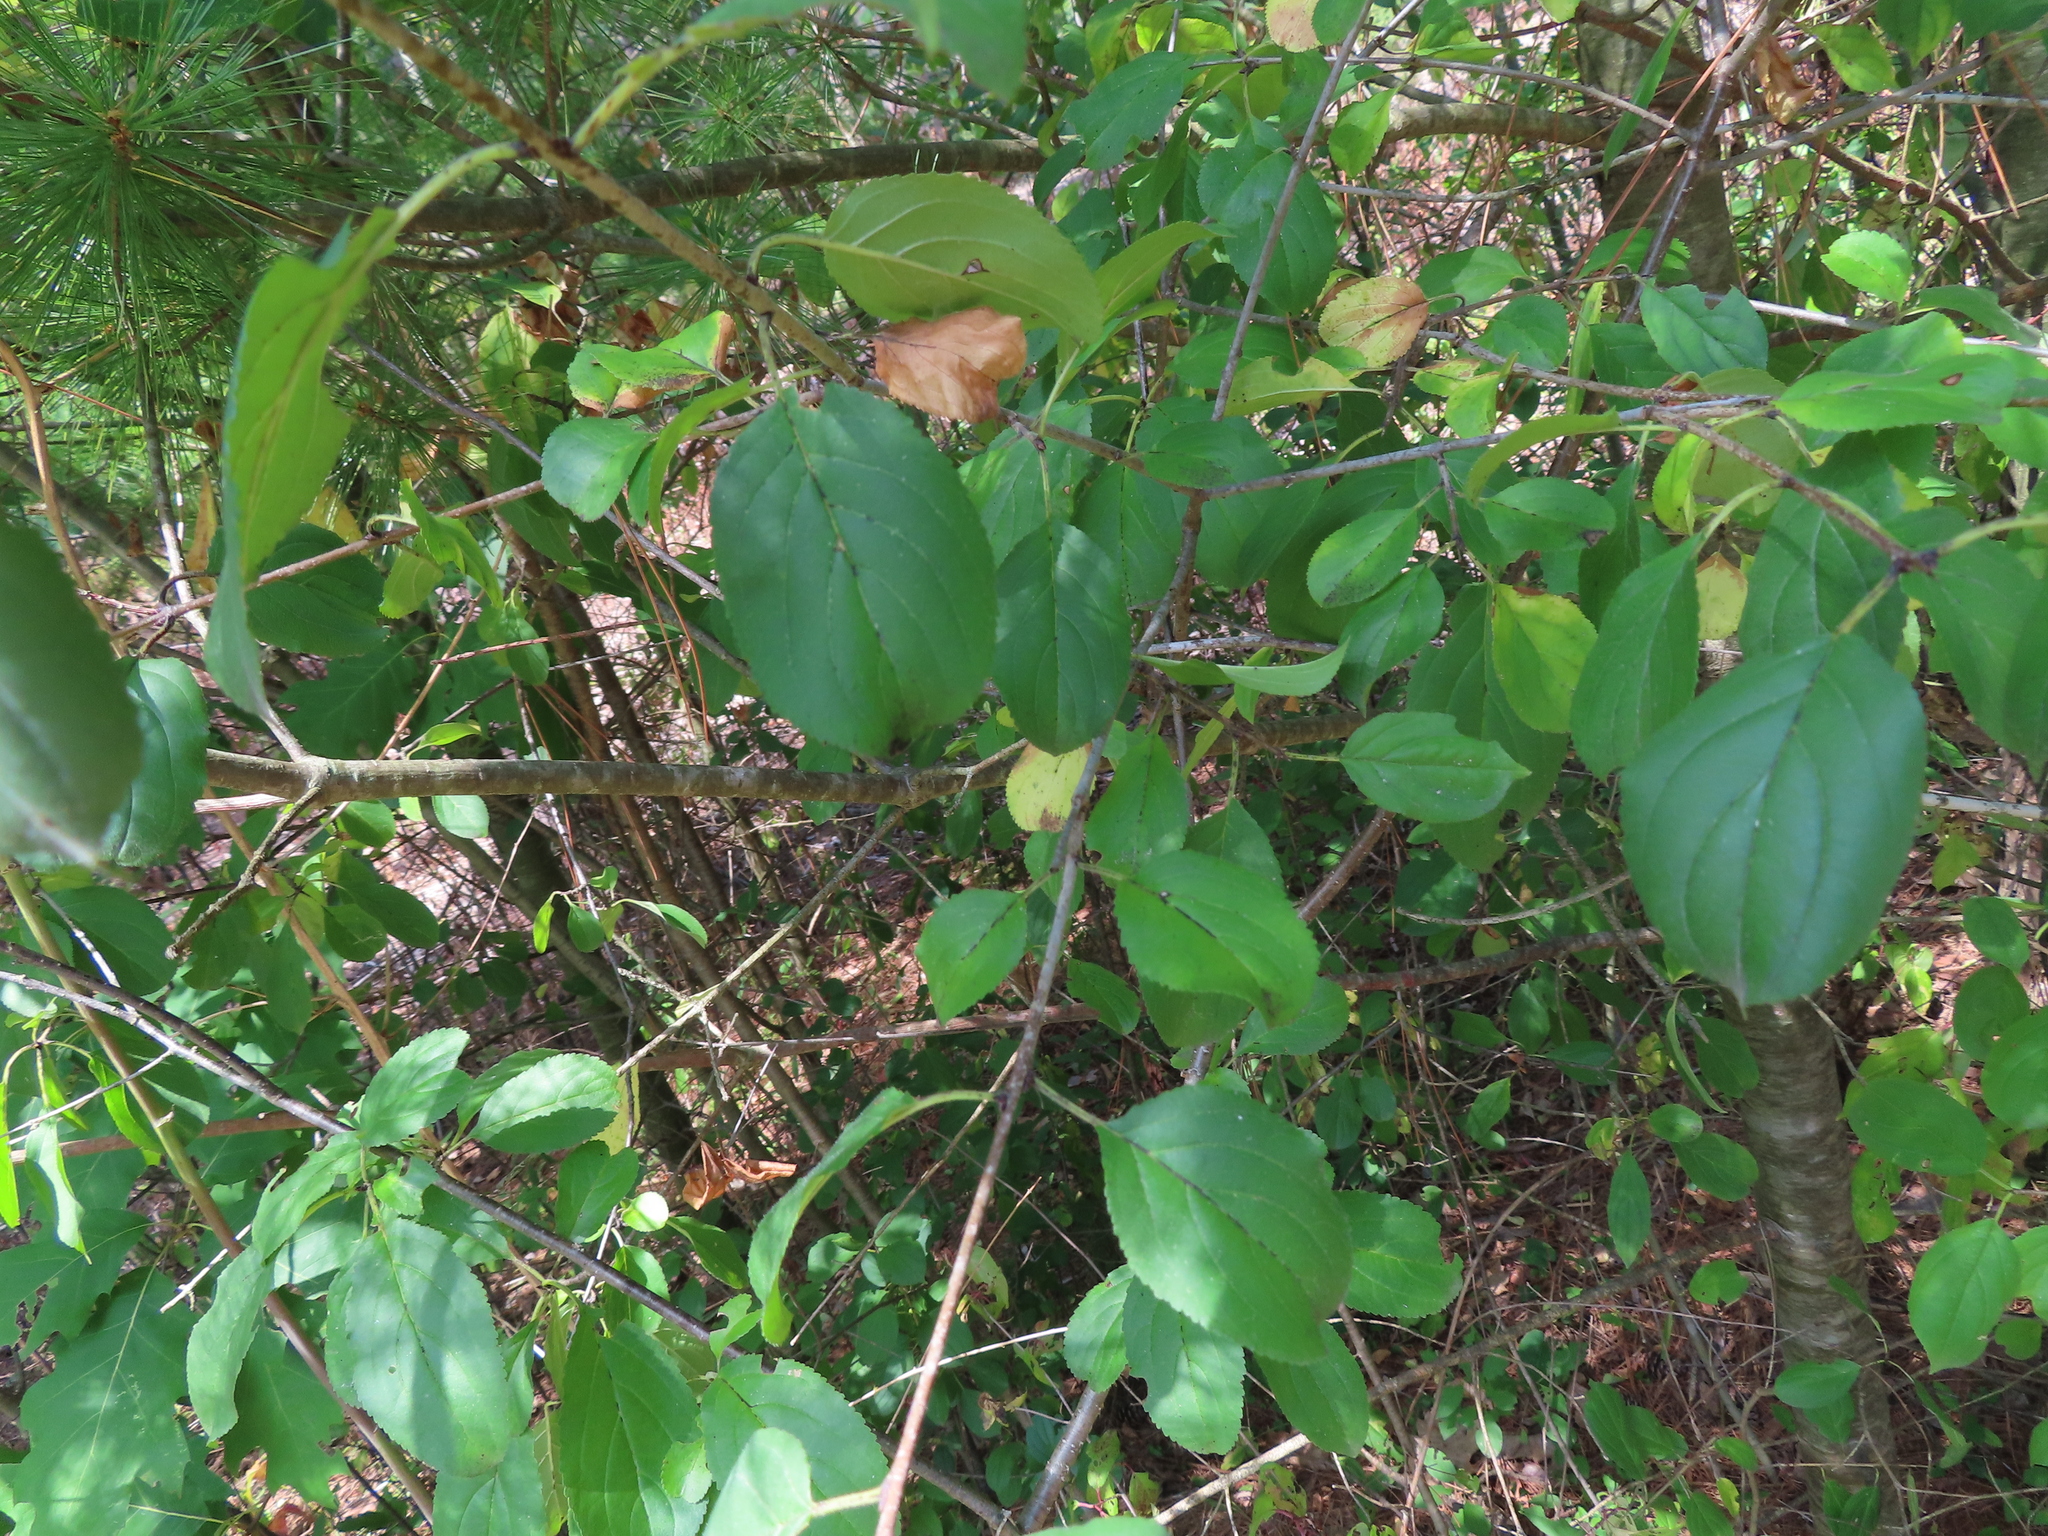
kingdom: Plantae
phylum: Tracheophyta
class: Magnoliopsida
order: Rosales
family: Rhamnaceae
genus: Rhamnus
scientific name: Rhamnus cathartica
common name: Common buckthorn
